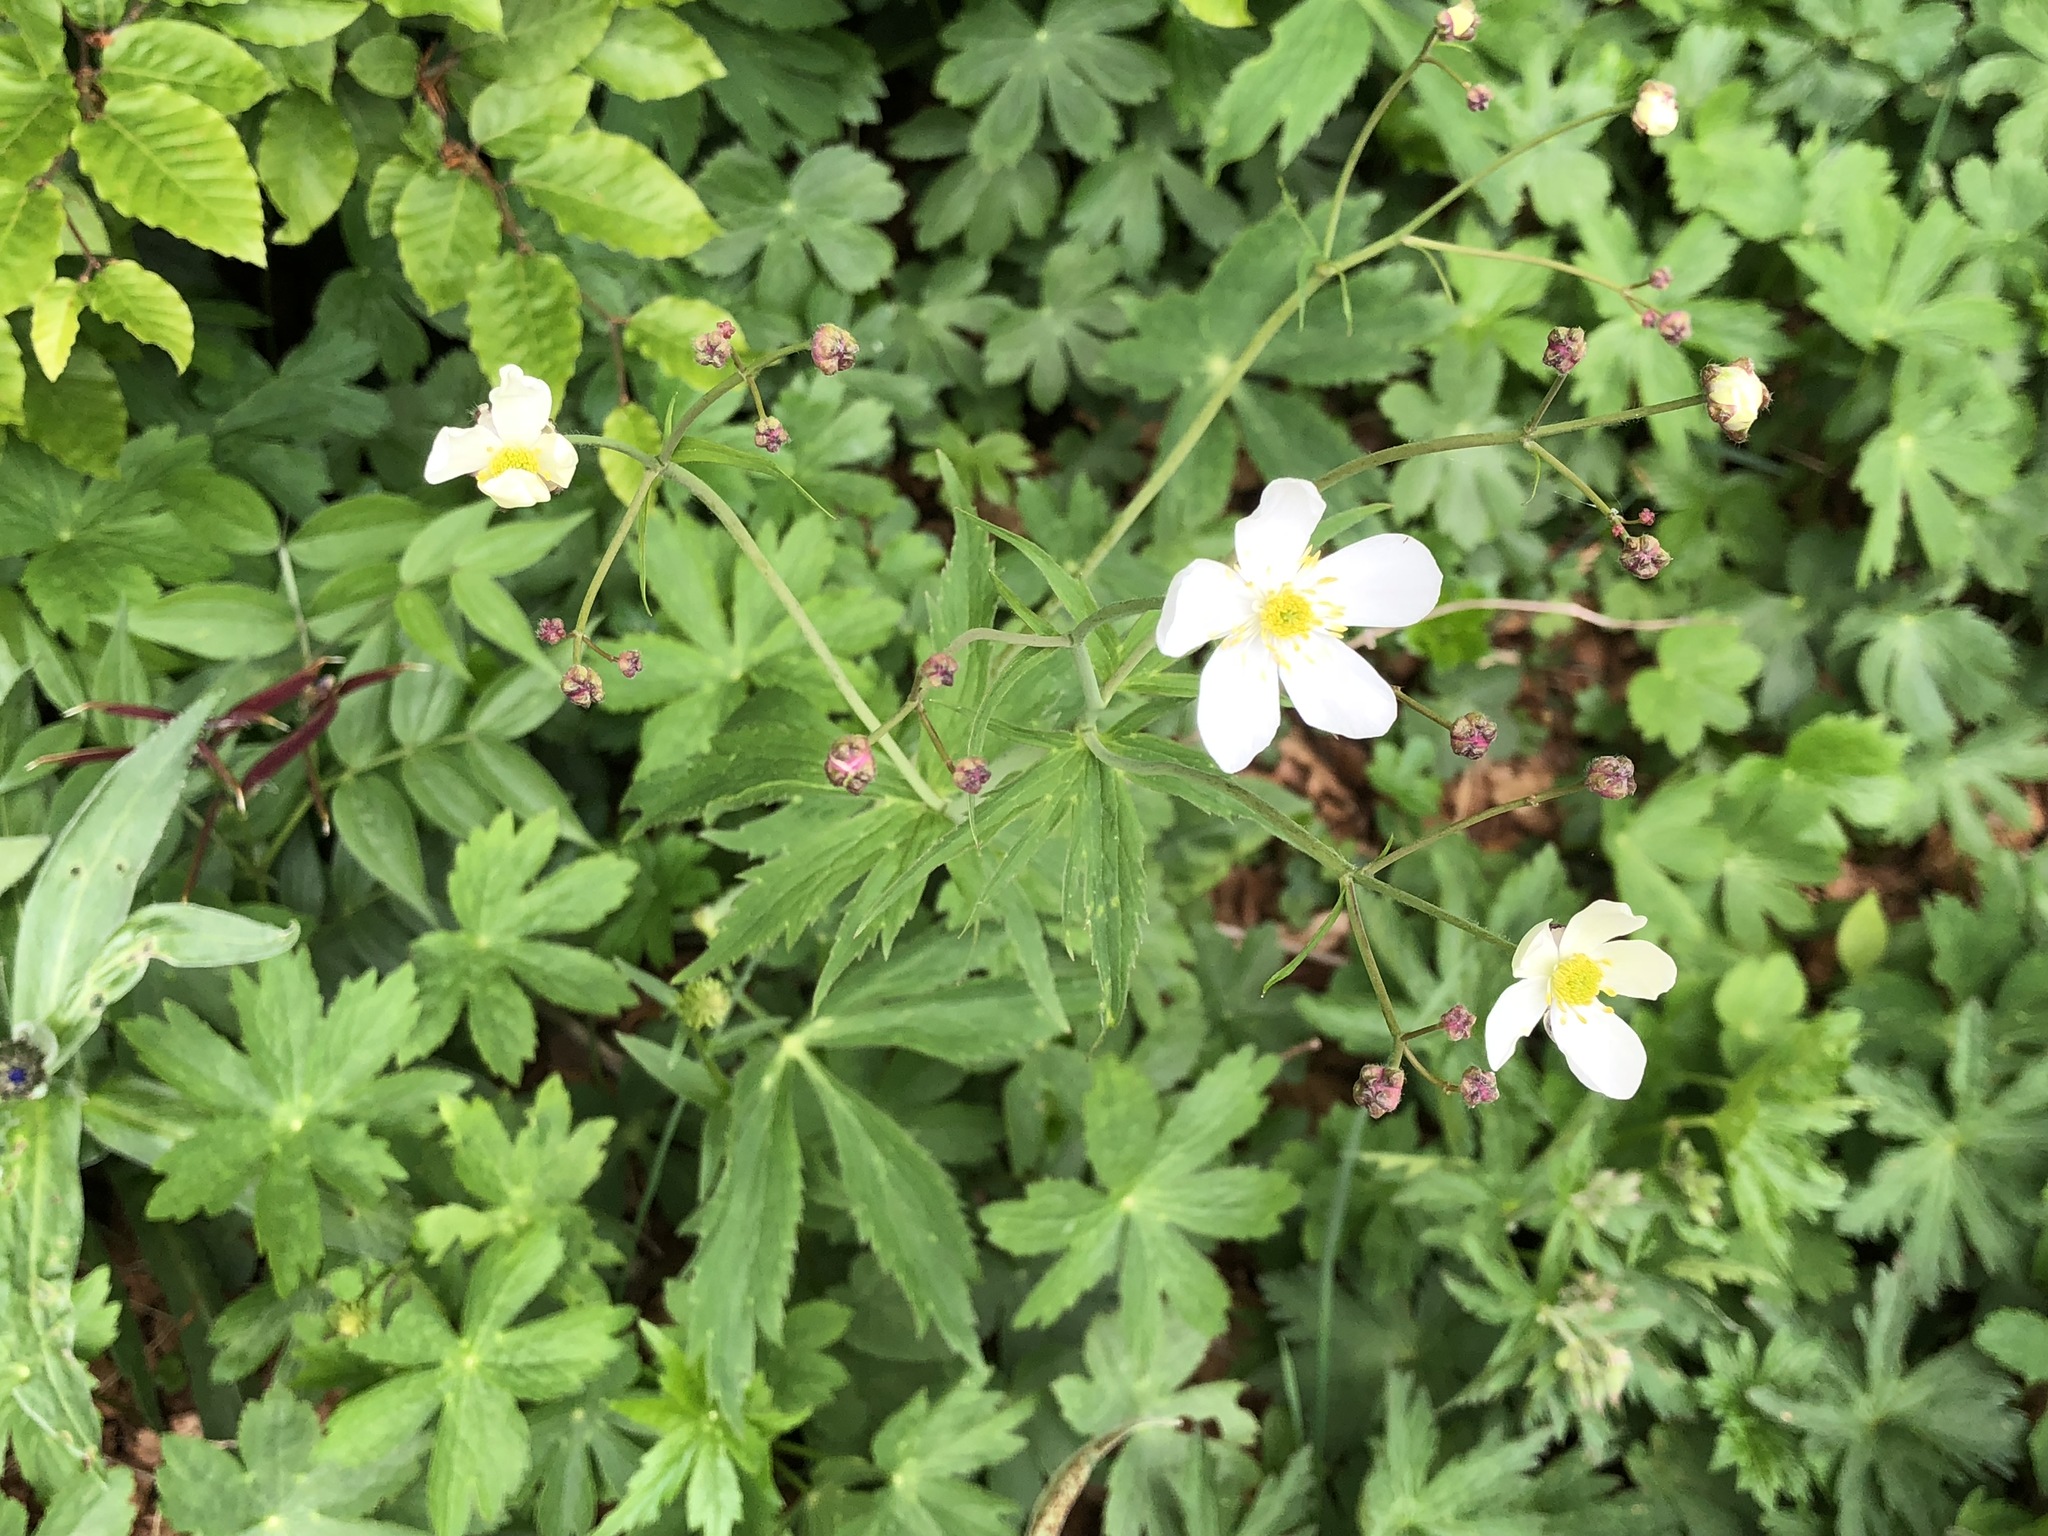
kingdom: Plantae
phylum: Tracheophyta
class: Magnoliopsida
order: Ranunculales
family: Ranunculaceae
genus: Ranunculus
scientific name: Ranunculus aconitifolius
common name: Aconite-leaved buttercup
